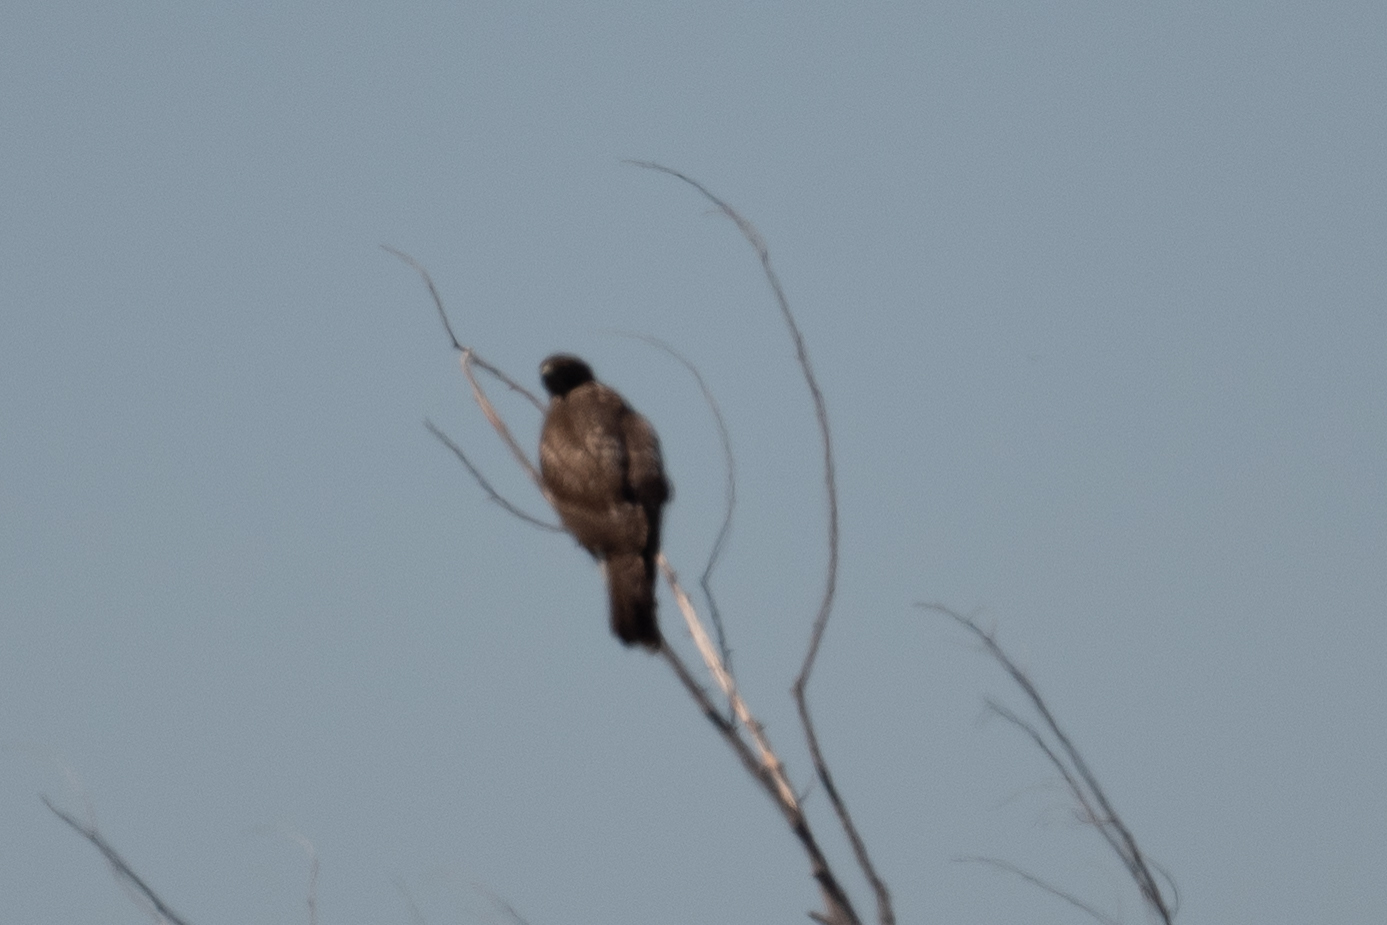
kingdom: Animalia
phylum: Chordata
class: Aves
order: Accipitriformes
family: Accipitridae
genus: Buteo
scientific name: Buteo jamaicensis
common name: Red-tailed hawk
